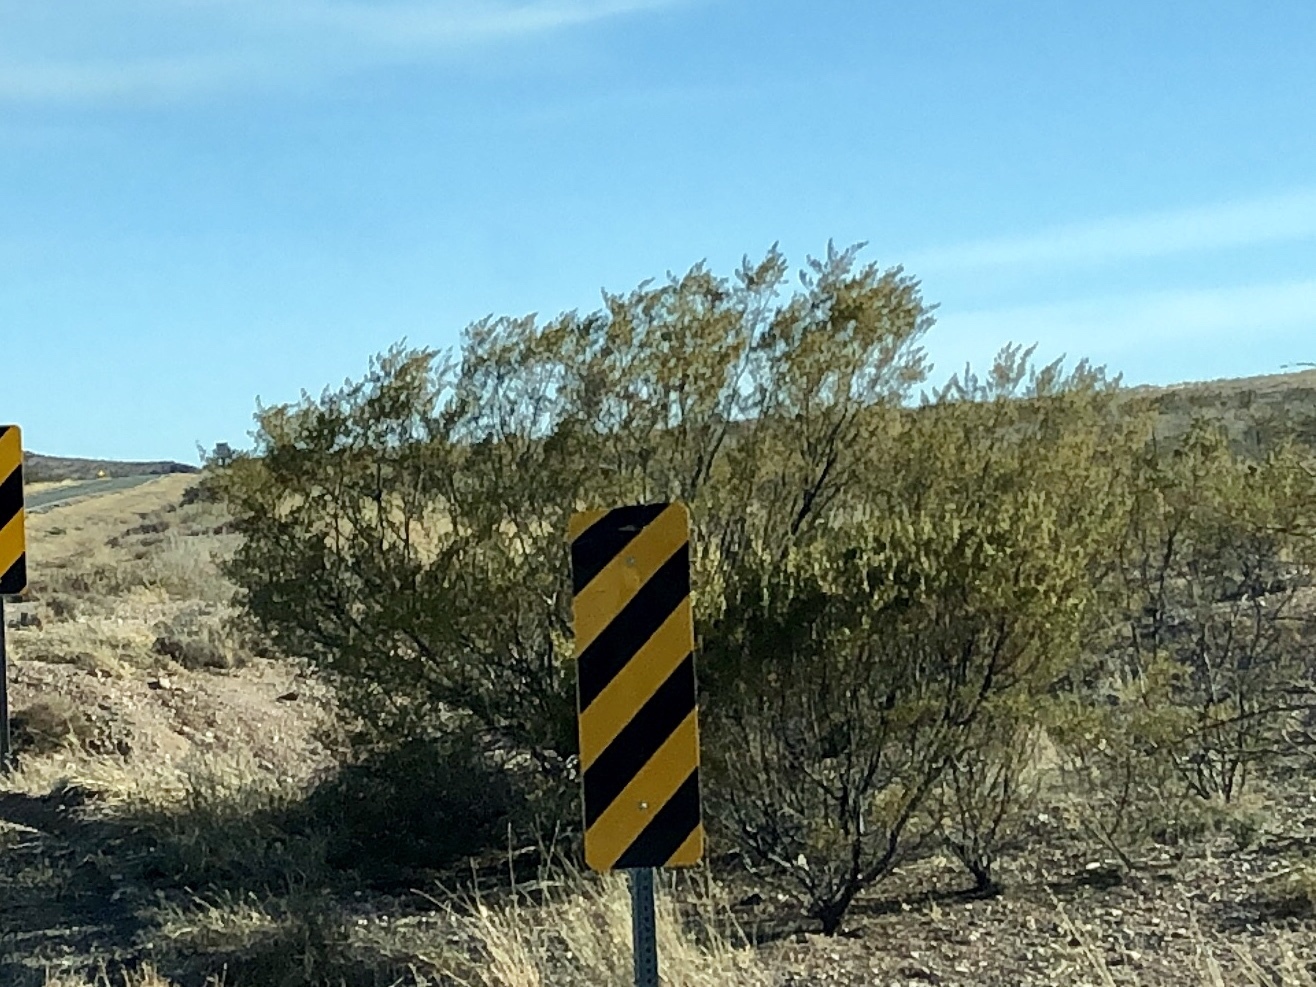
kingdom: Plantae
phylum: Tracheophyta
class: Magnoliopsida
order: Zygophyllales
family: Zygophyllaceae
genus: Larrea
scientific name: Larrea tridentata
